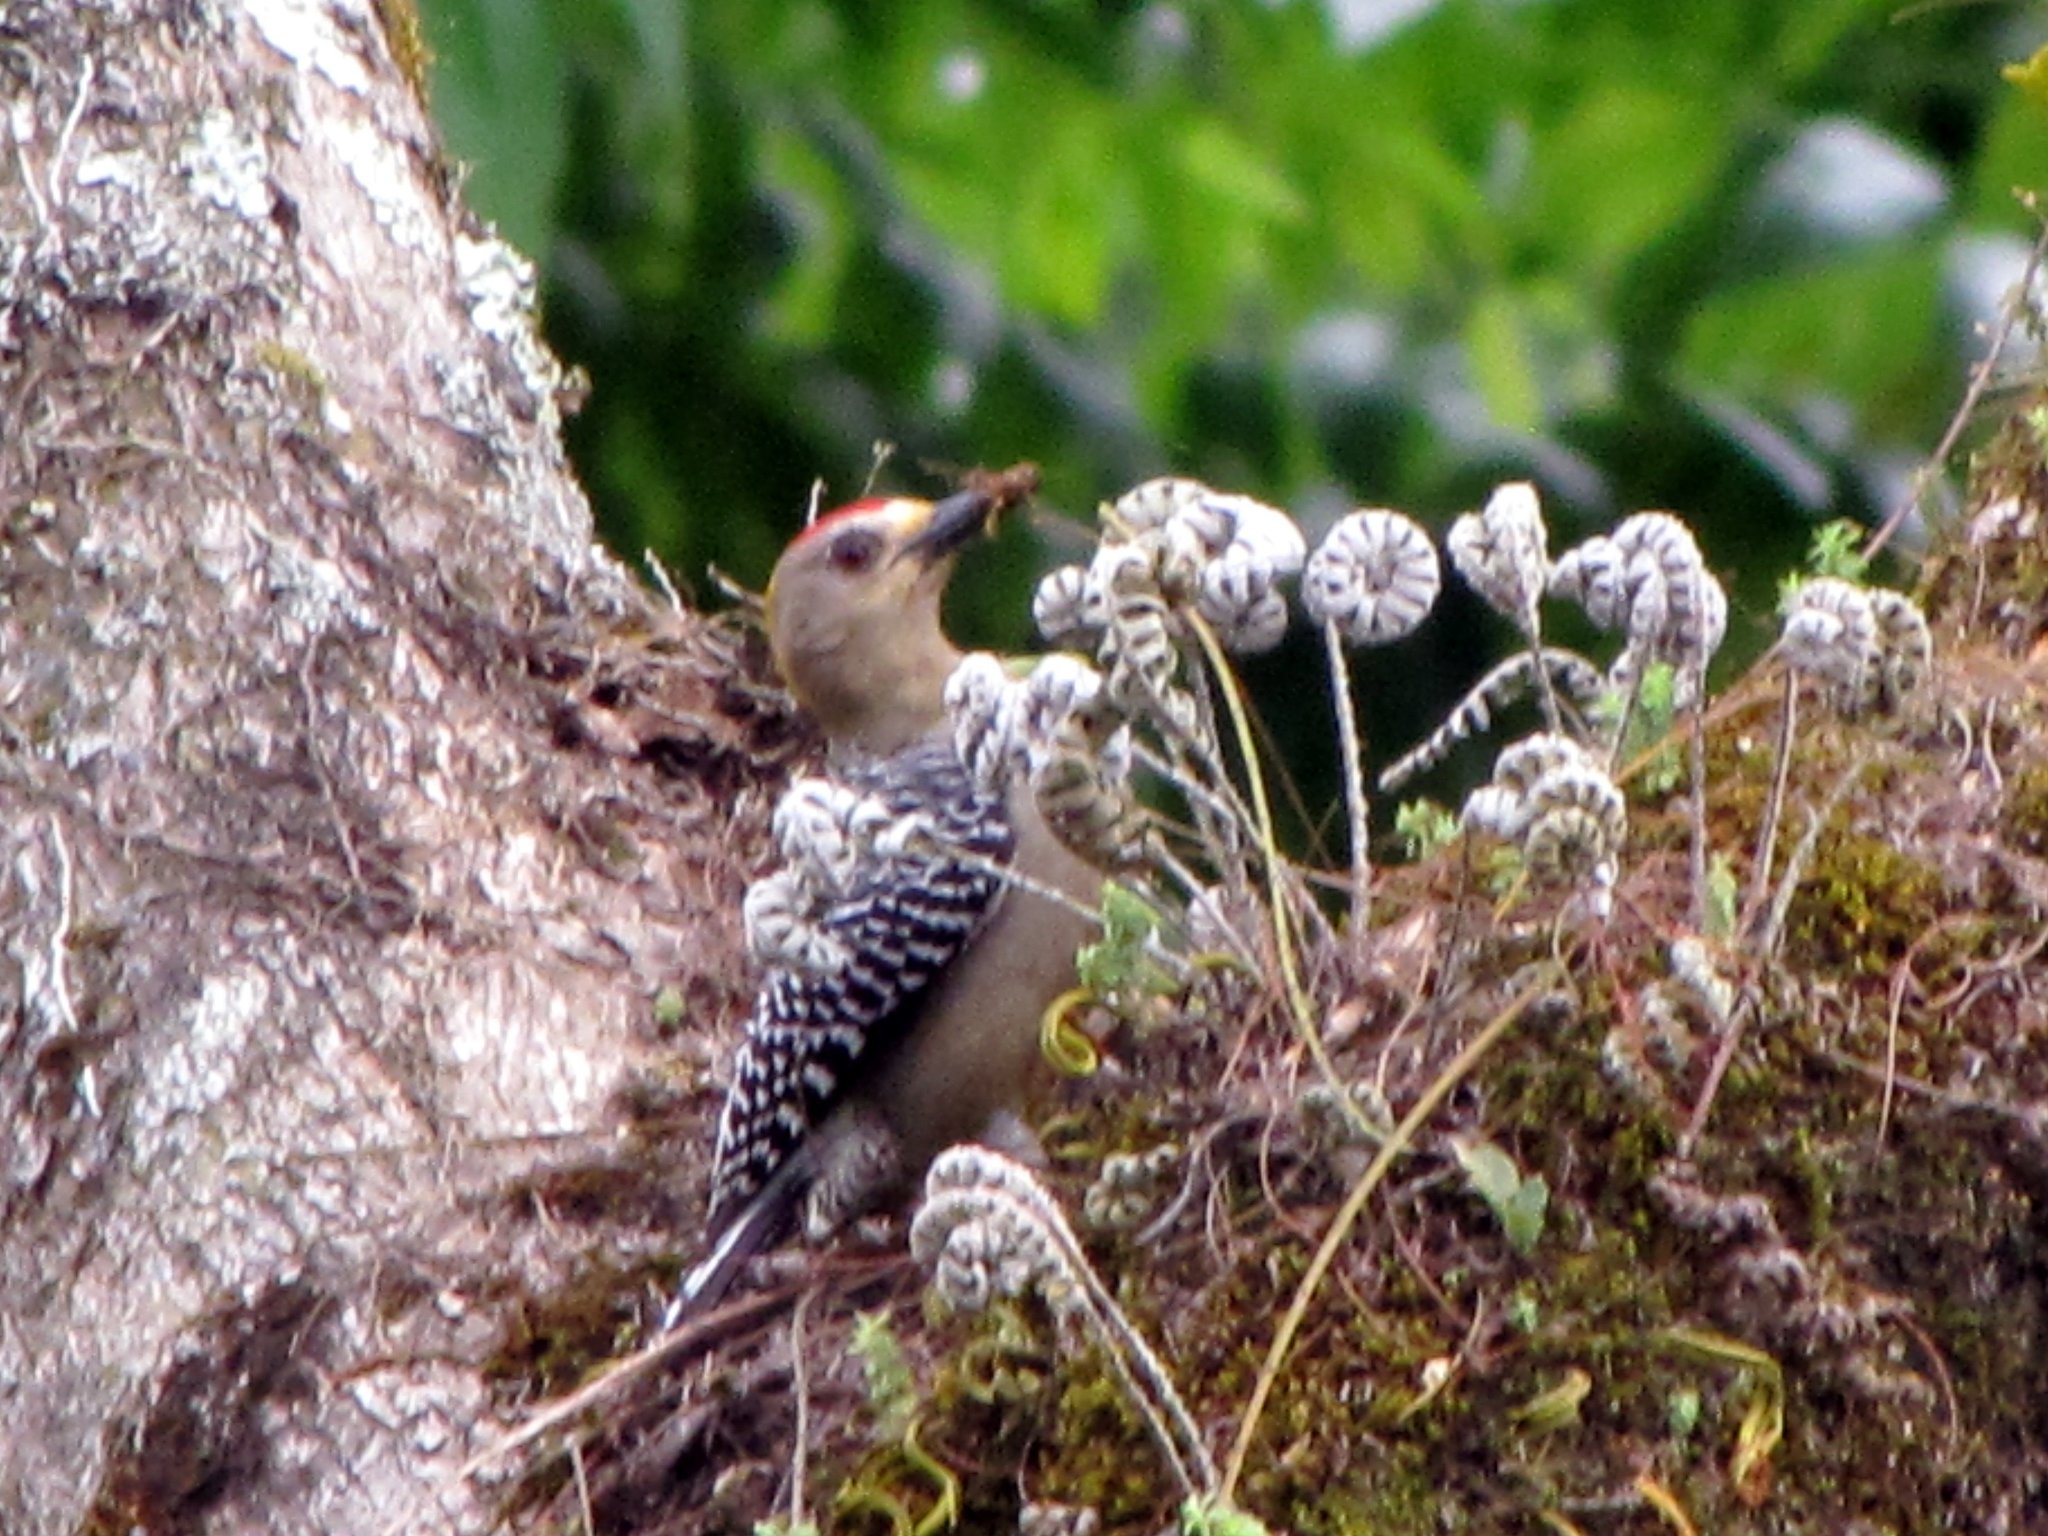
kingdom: Animalia
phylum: Chordata
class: Aves
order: Piciformes
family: Picidae
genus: Melanerpes
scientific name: Melanerpes hoffmannii
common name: Hoffmann's woodpecker
